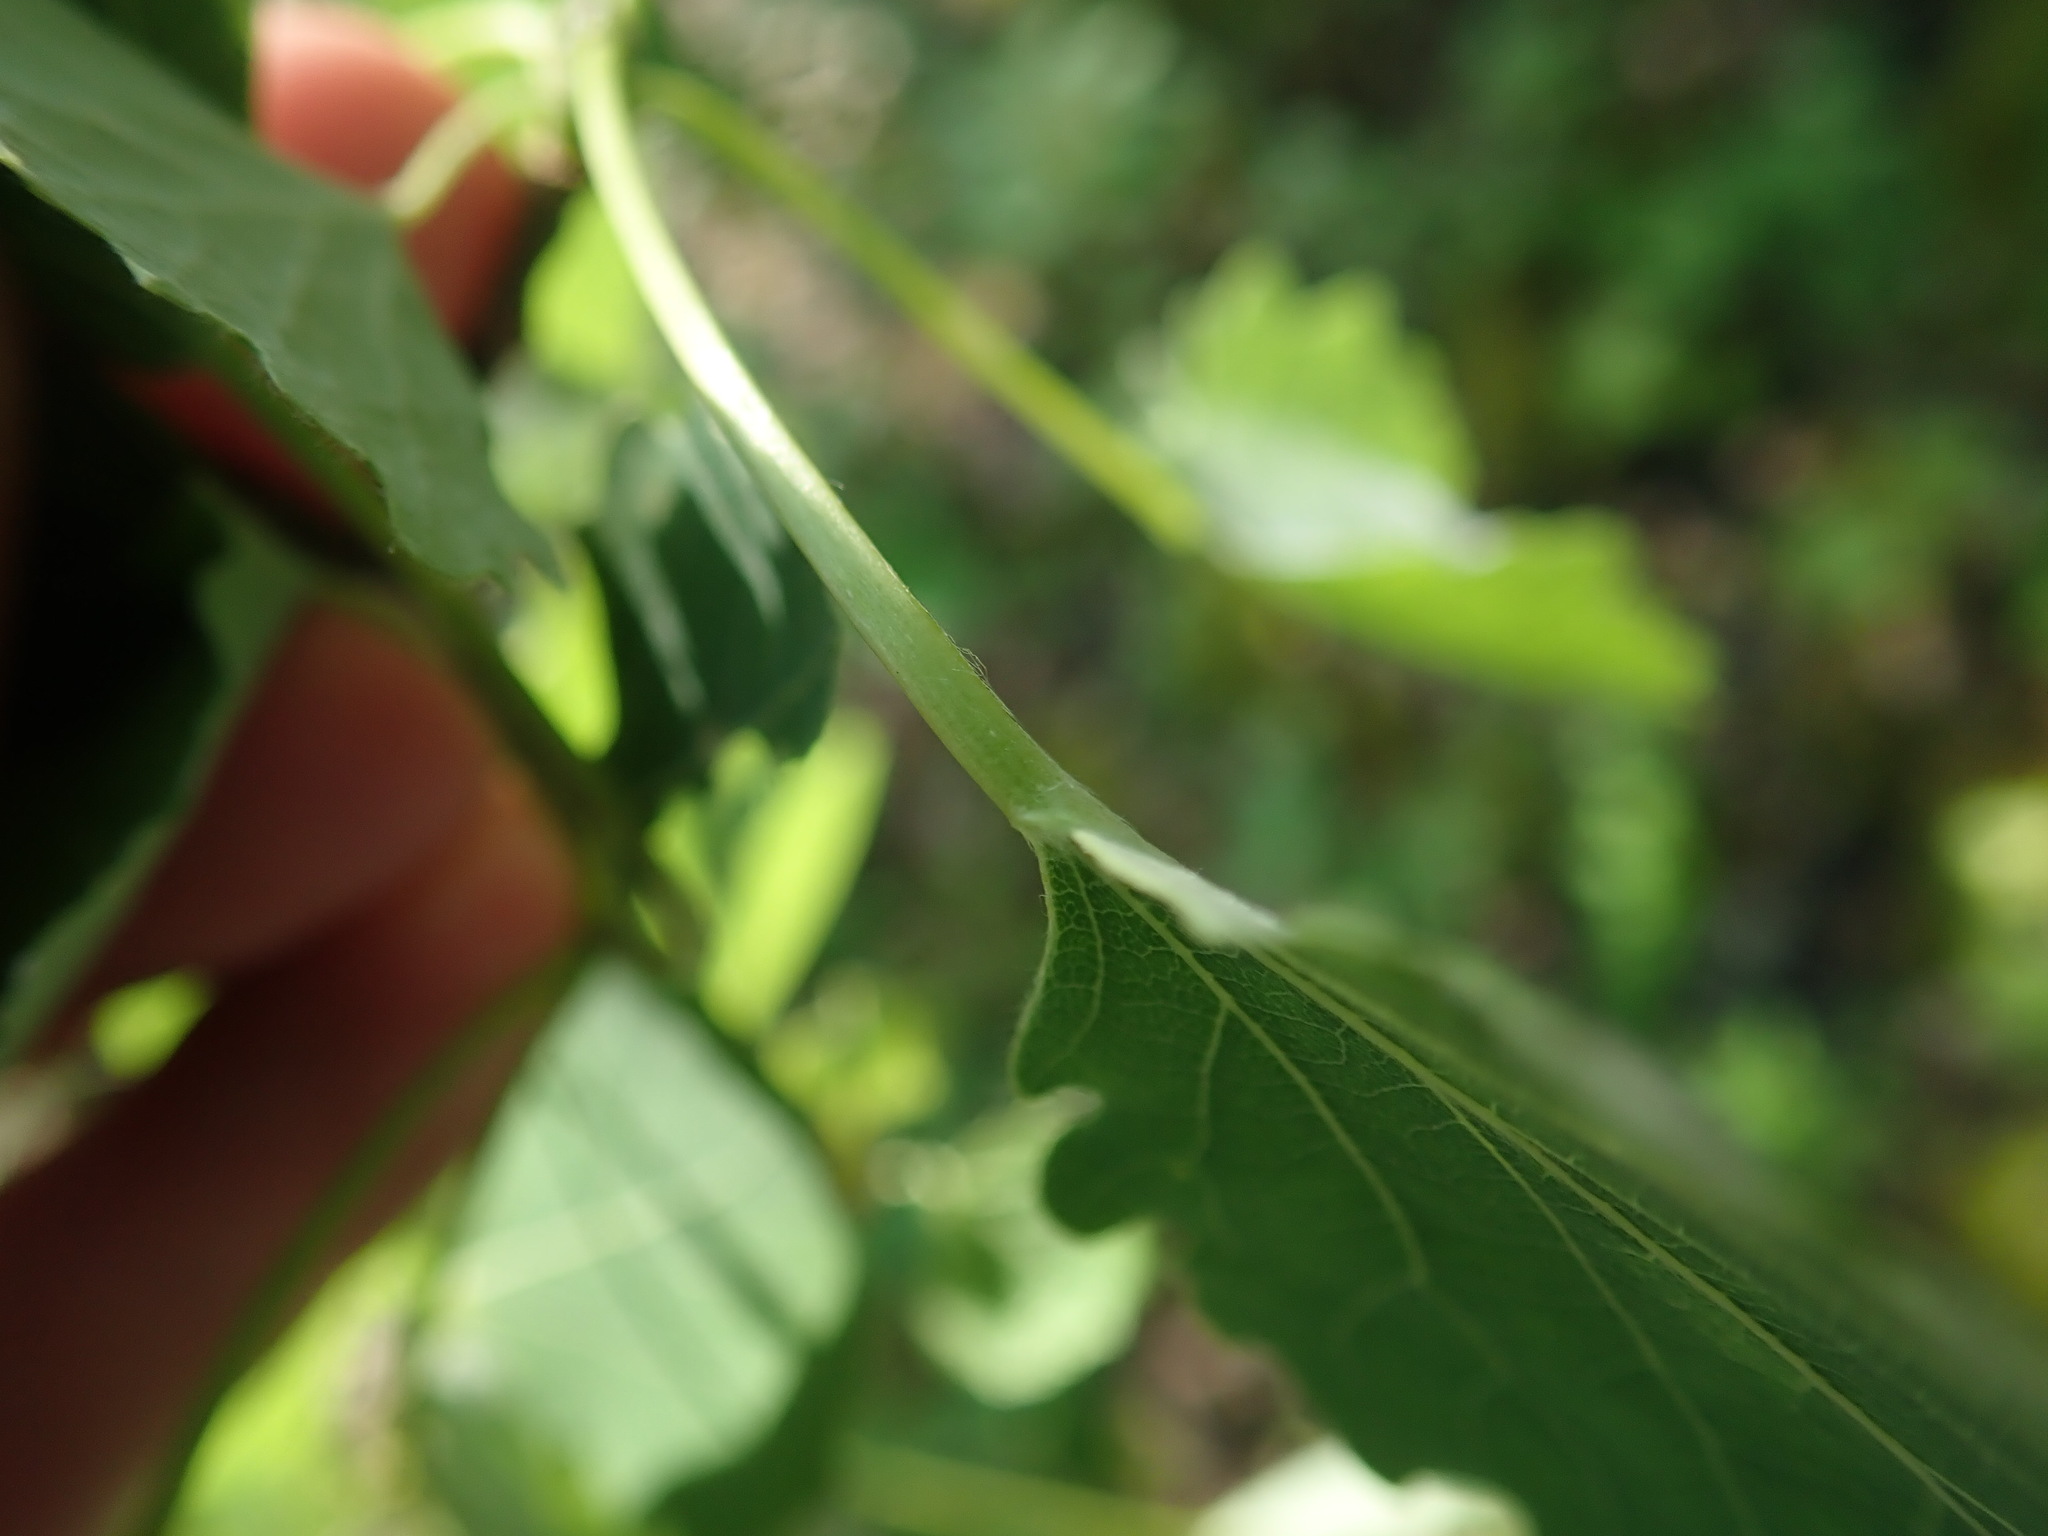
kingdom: Plantae
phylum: Tracheophyta
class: Magnoliopsida
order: Malpighiales
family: Salicaceae
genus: Populus
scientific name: Populus tremula
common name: European aspen
